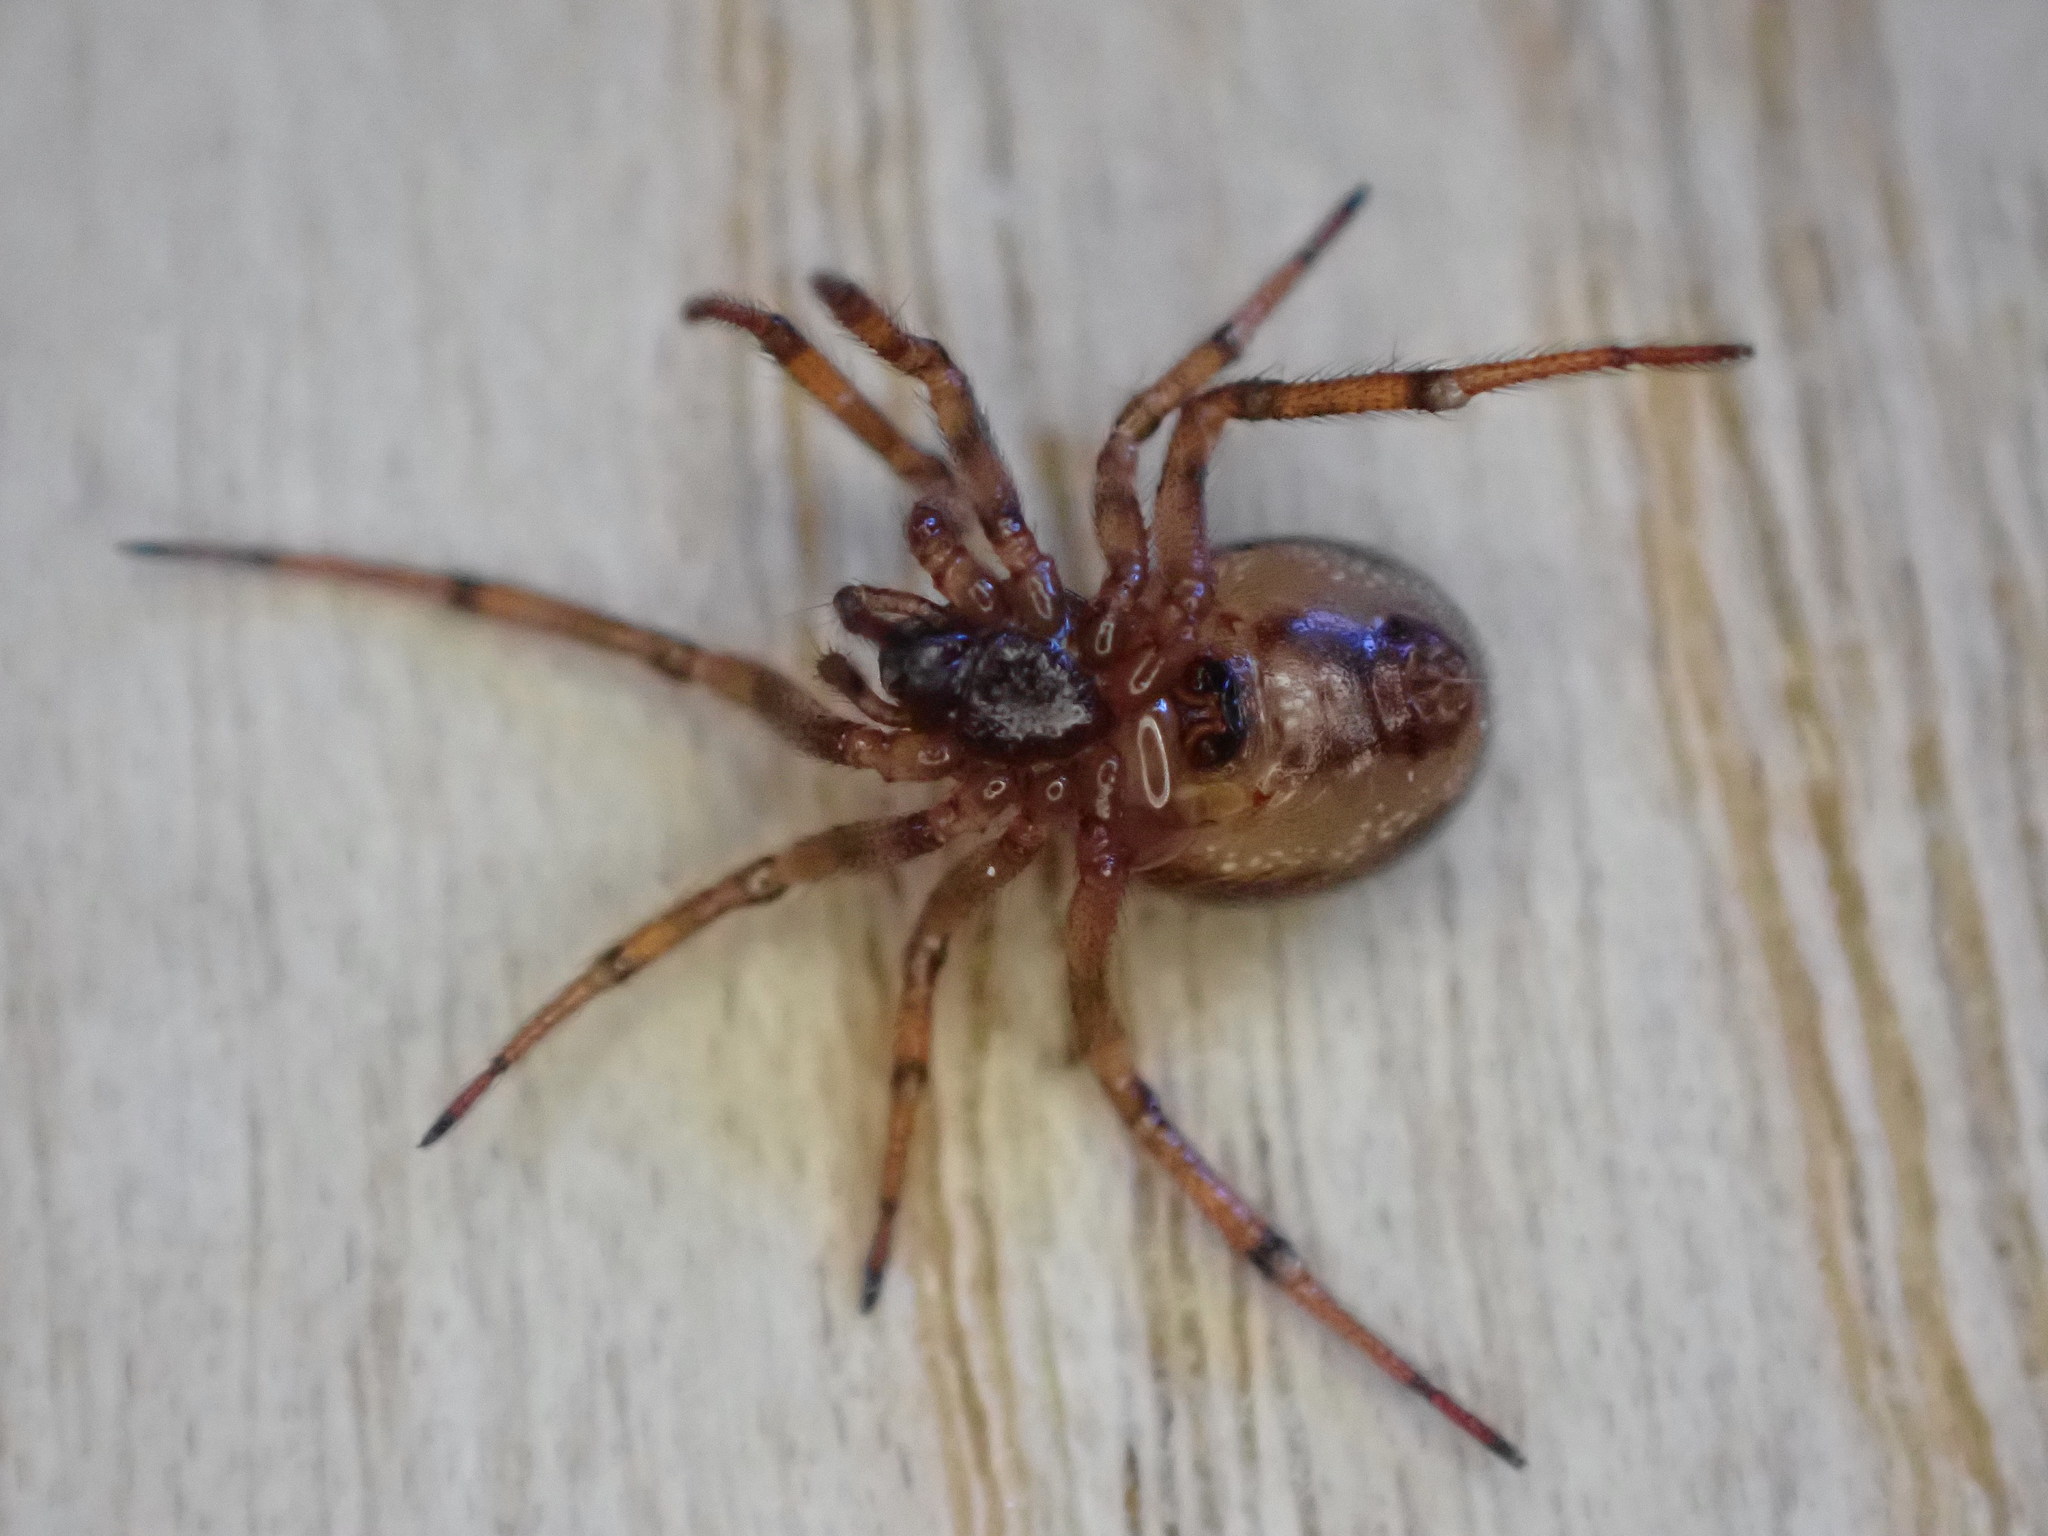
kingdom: Animalia
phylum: Arthropoda
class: Arachnida
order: Araneae
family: Theridiidae
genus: Steatoda
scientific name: Steatoda nobilis
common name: Cobweb weaver
